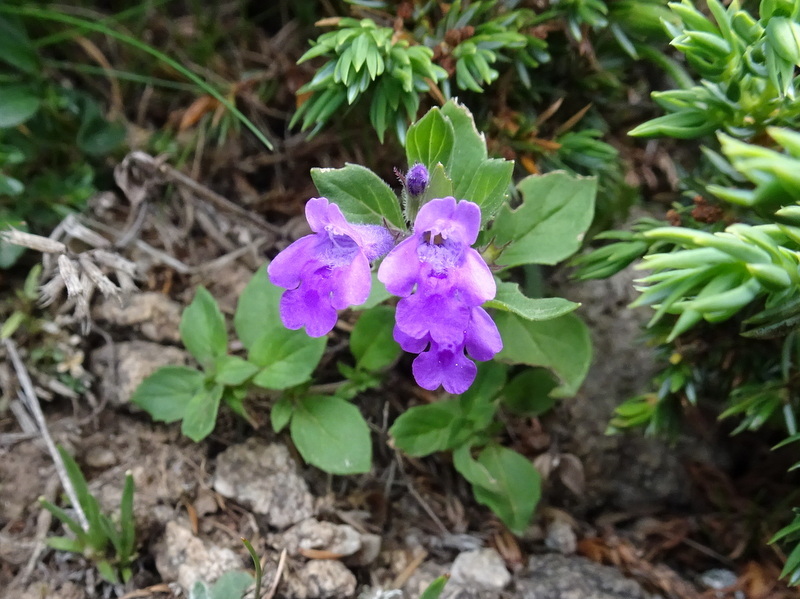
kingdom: Plantae
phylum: Tracheophyta
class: Magnoliopsida
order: Lamiales
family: Lamiaceae
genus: Clinopodium
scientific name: Clinopodium alpinum
